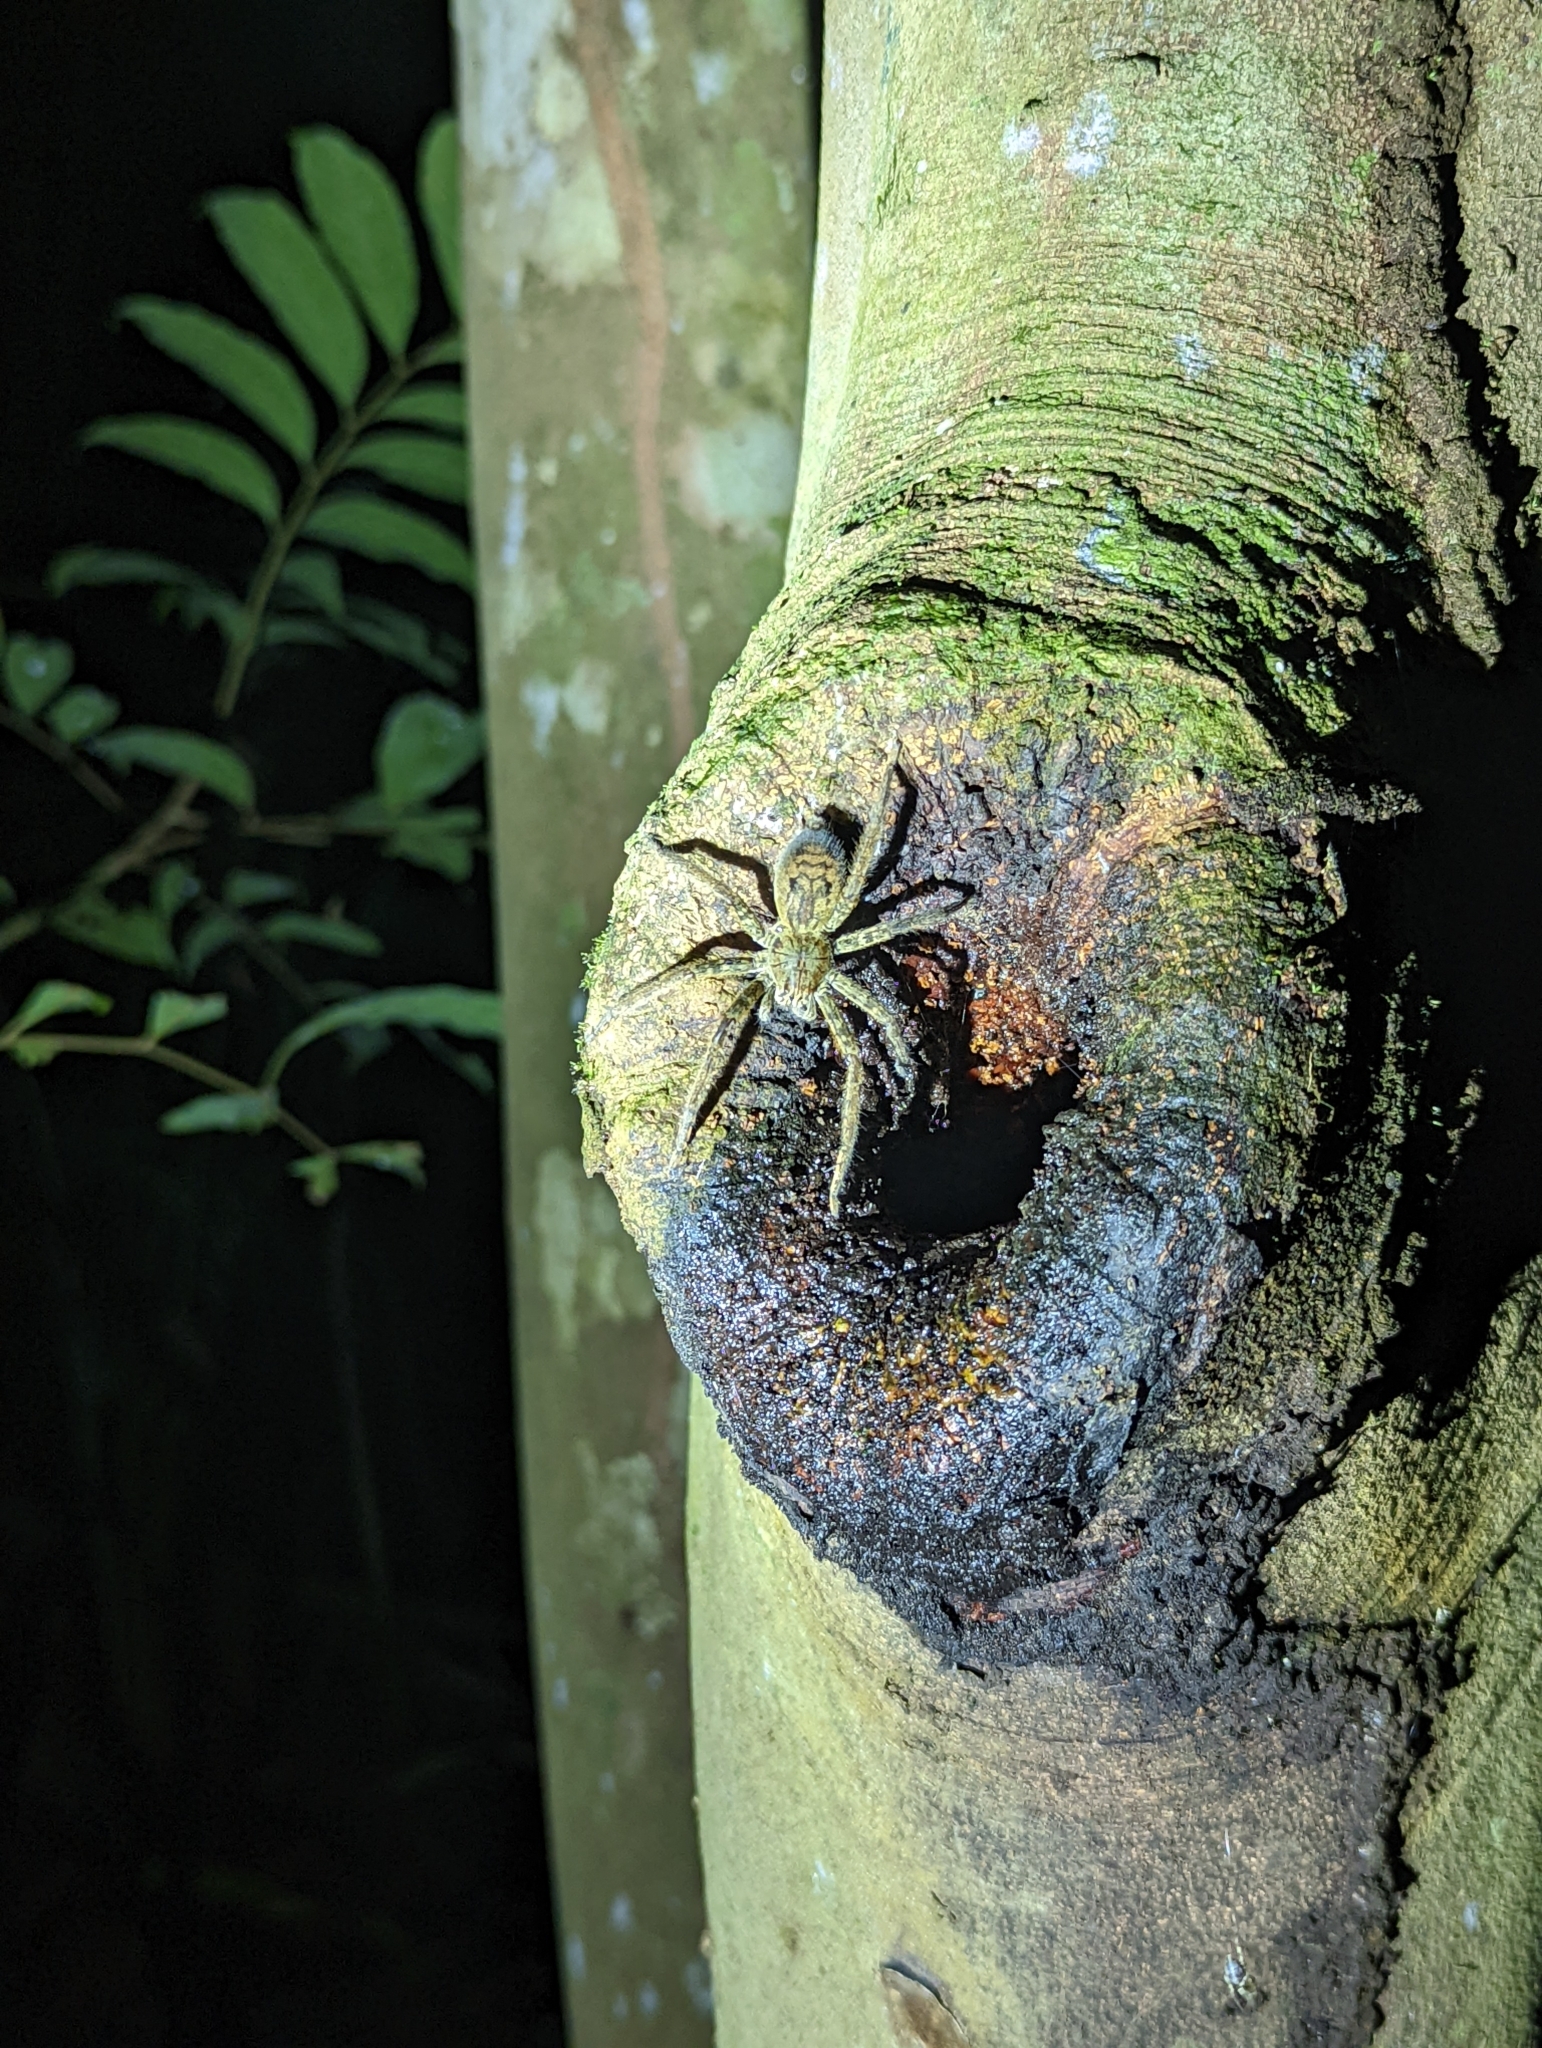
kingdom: Animalia
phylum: Arthropoda
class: Arachnida
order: Araneae
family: Trechaleidae
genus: Cupiennius
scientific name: Cupiennius coccineus
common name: Wandering spiders
